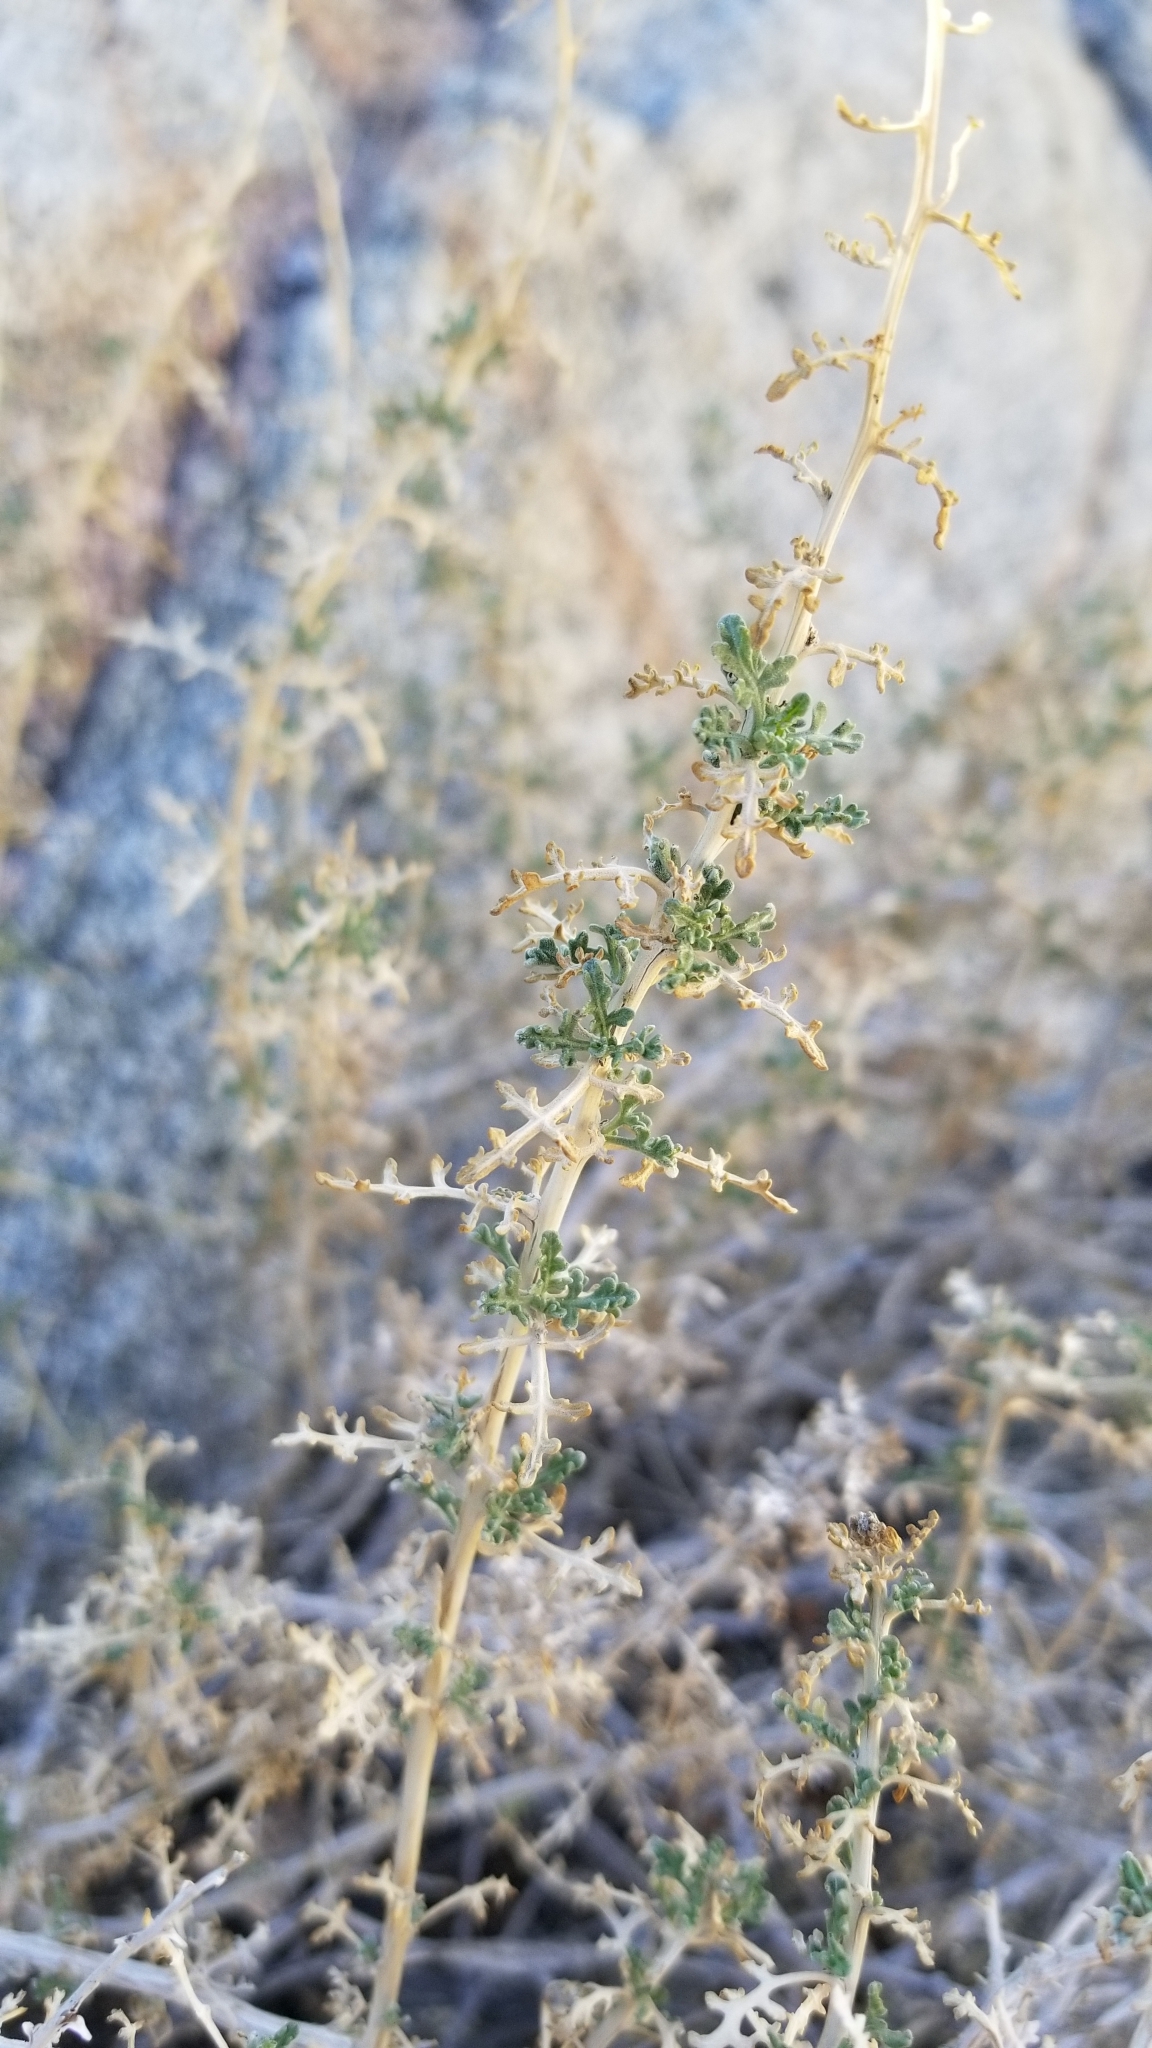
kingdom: Plantae
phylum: Tracheophyta
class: Magnoliopsida
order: Asterales
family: Asteraceae
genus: Ambrosia
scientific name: Ambrosia dumosa
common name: Bur-sage
